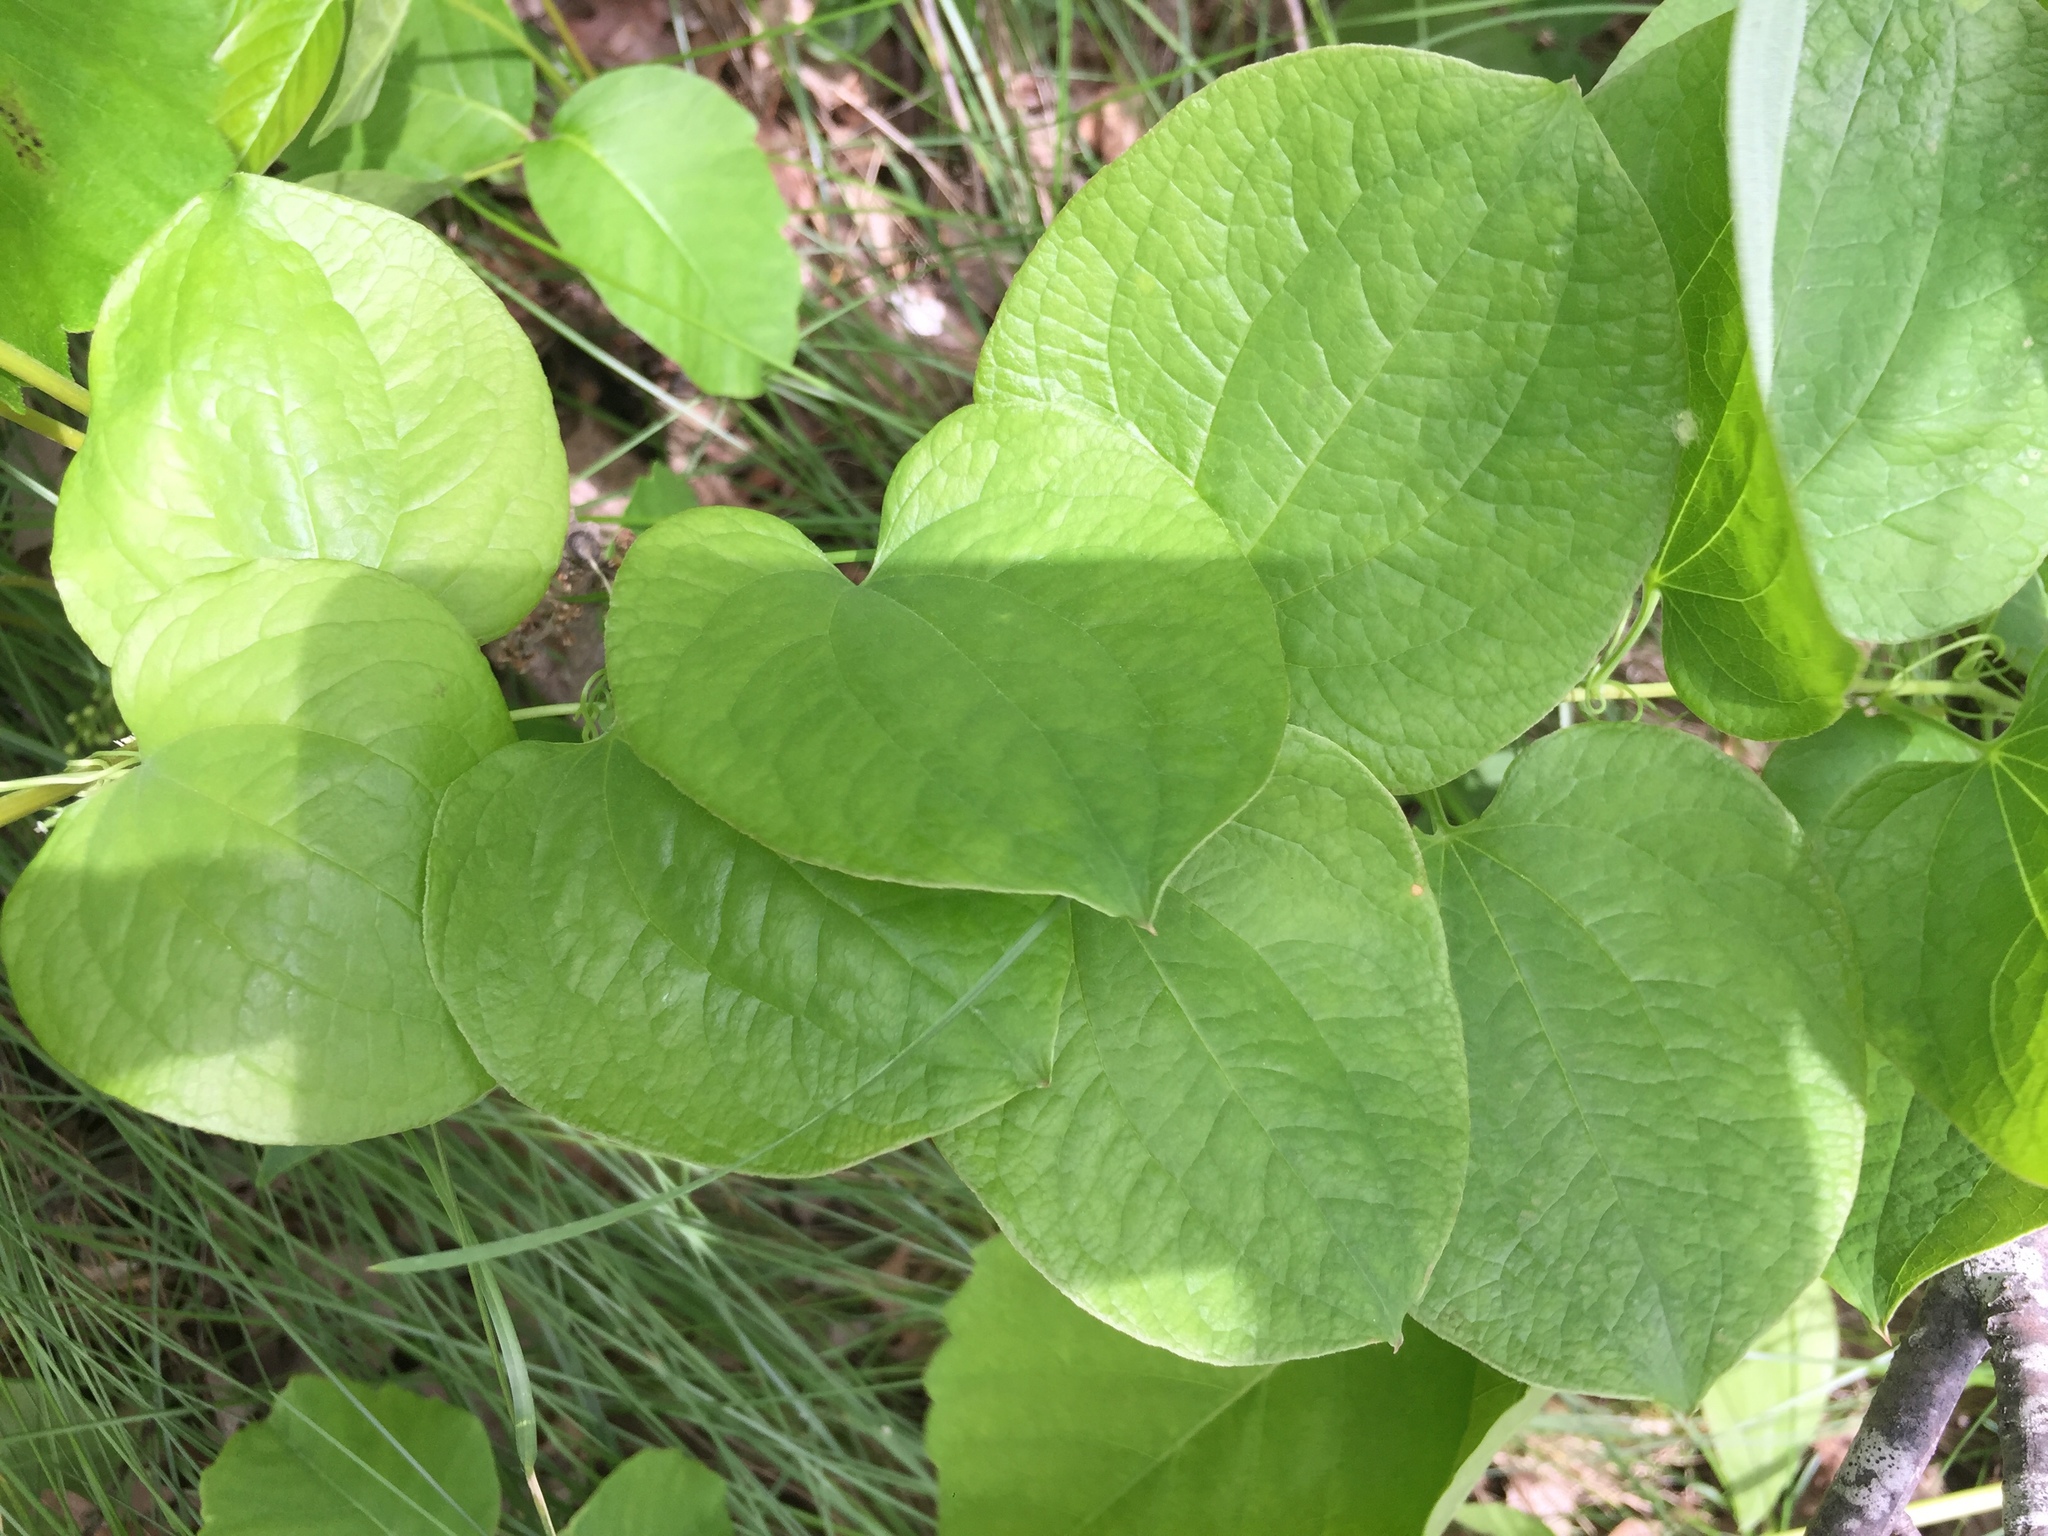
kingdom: Plantae
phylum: Tracheophyta
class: Liliopsida
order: Liliales
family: Smilacaceae
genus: Smilax
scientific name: Smilax lasioneura
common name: Blue ridge carrionflower
